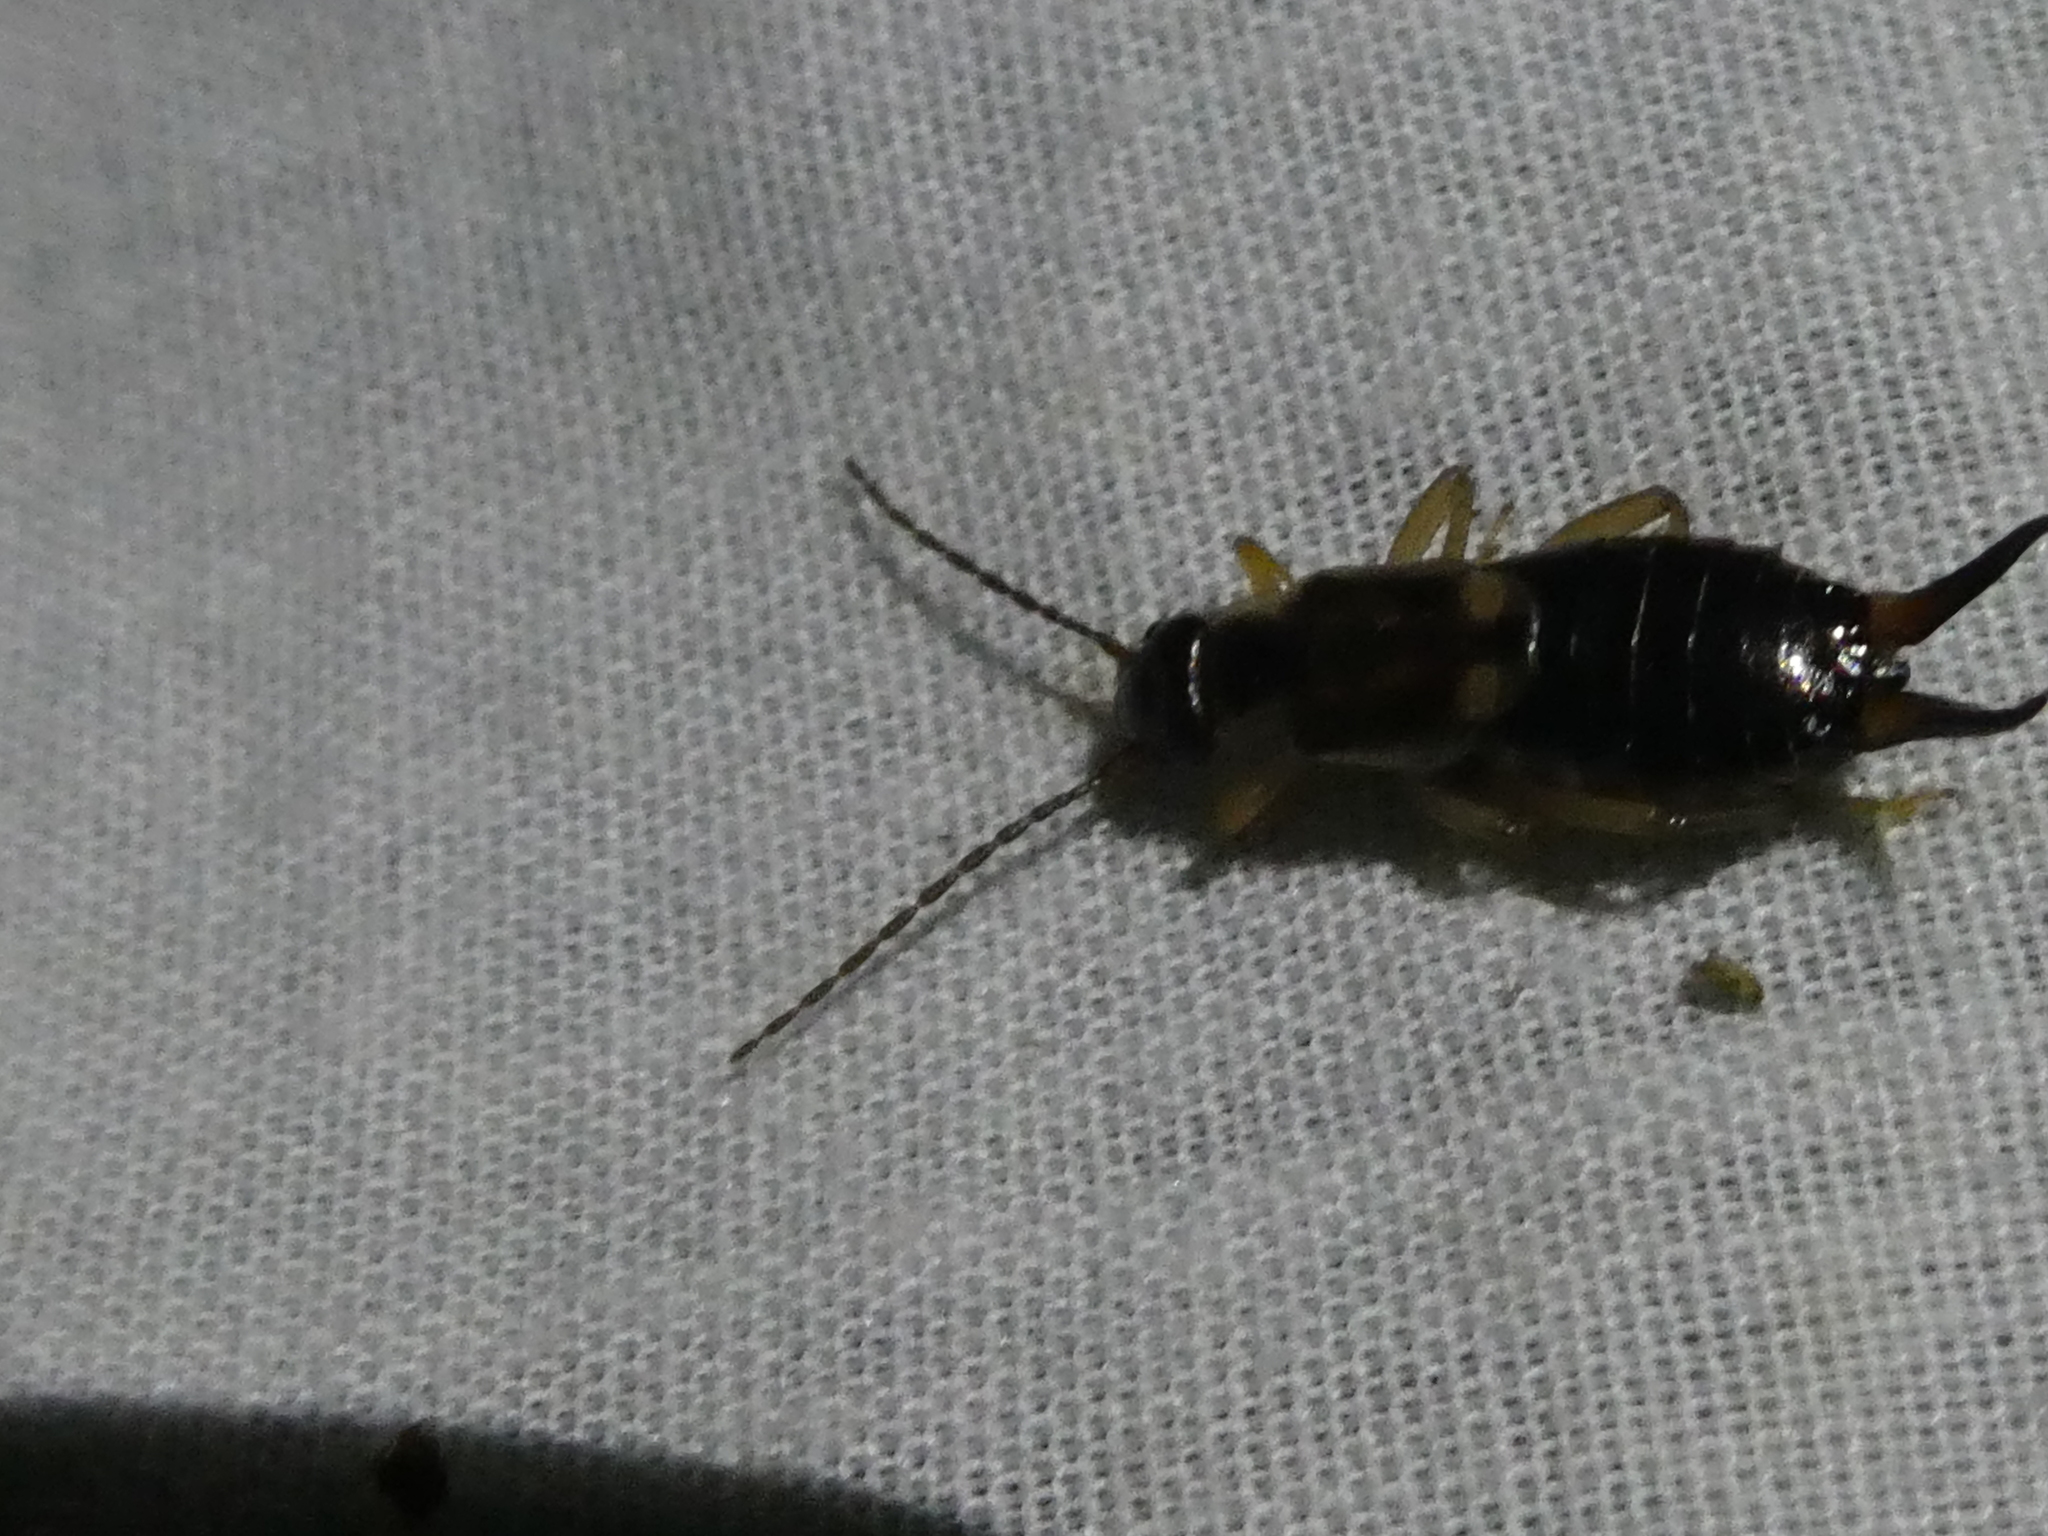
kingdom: Animalia
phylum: Arthropoda
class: Insecta
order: Dermaptera
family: Forficulidae
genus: Forficula
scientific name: Forficula
